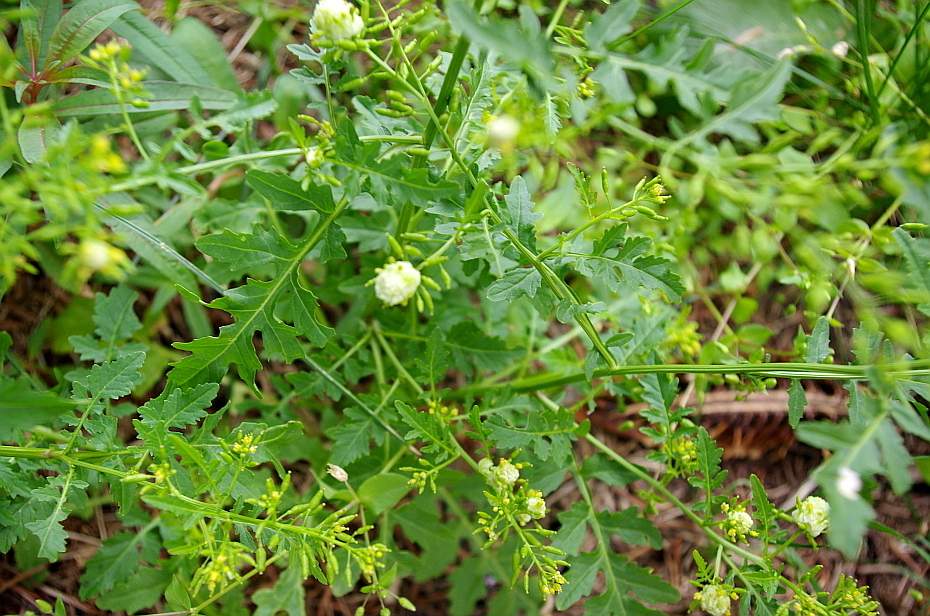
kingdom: Plantae
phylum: Tracheophyta
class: Magnoliopsida
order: Brassicales
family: Brassicaceae
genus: Rorippa
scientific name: Rorippa palustris
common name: Marsh yellow-cress
